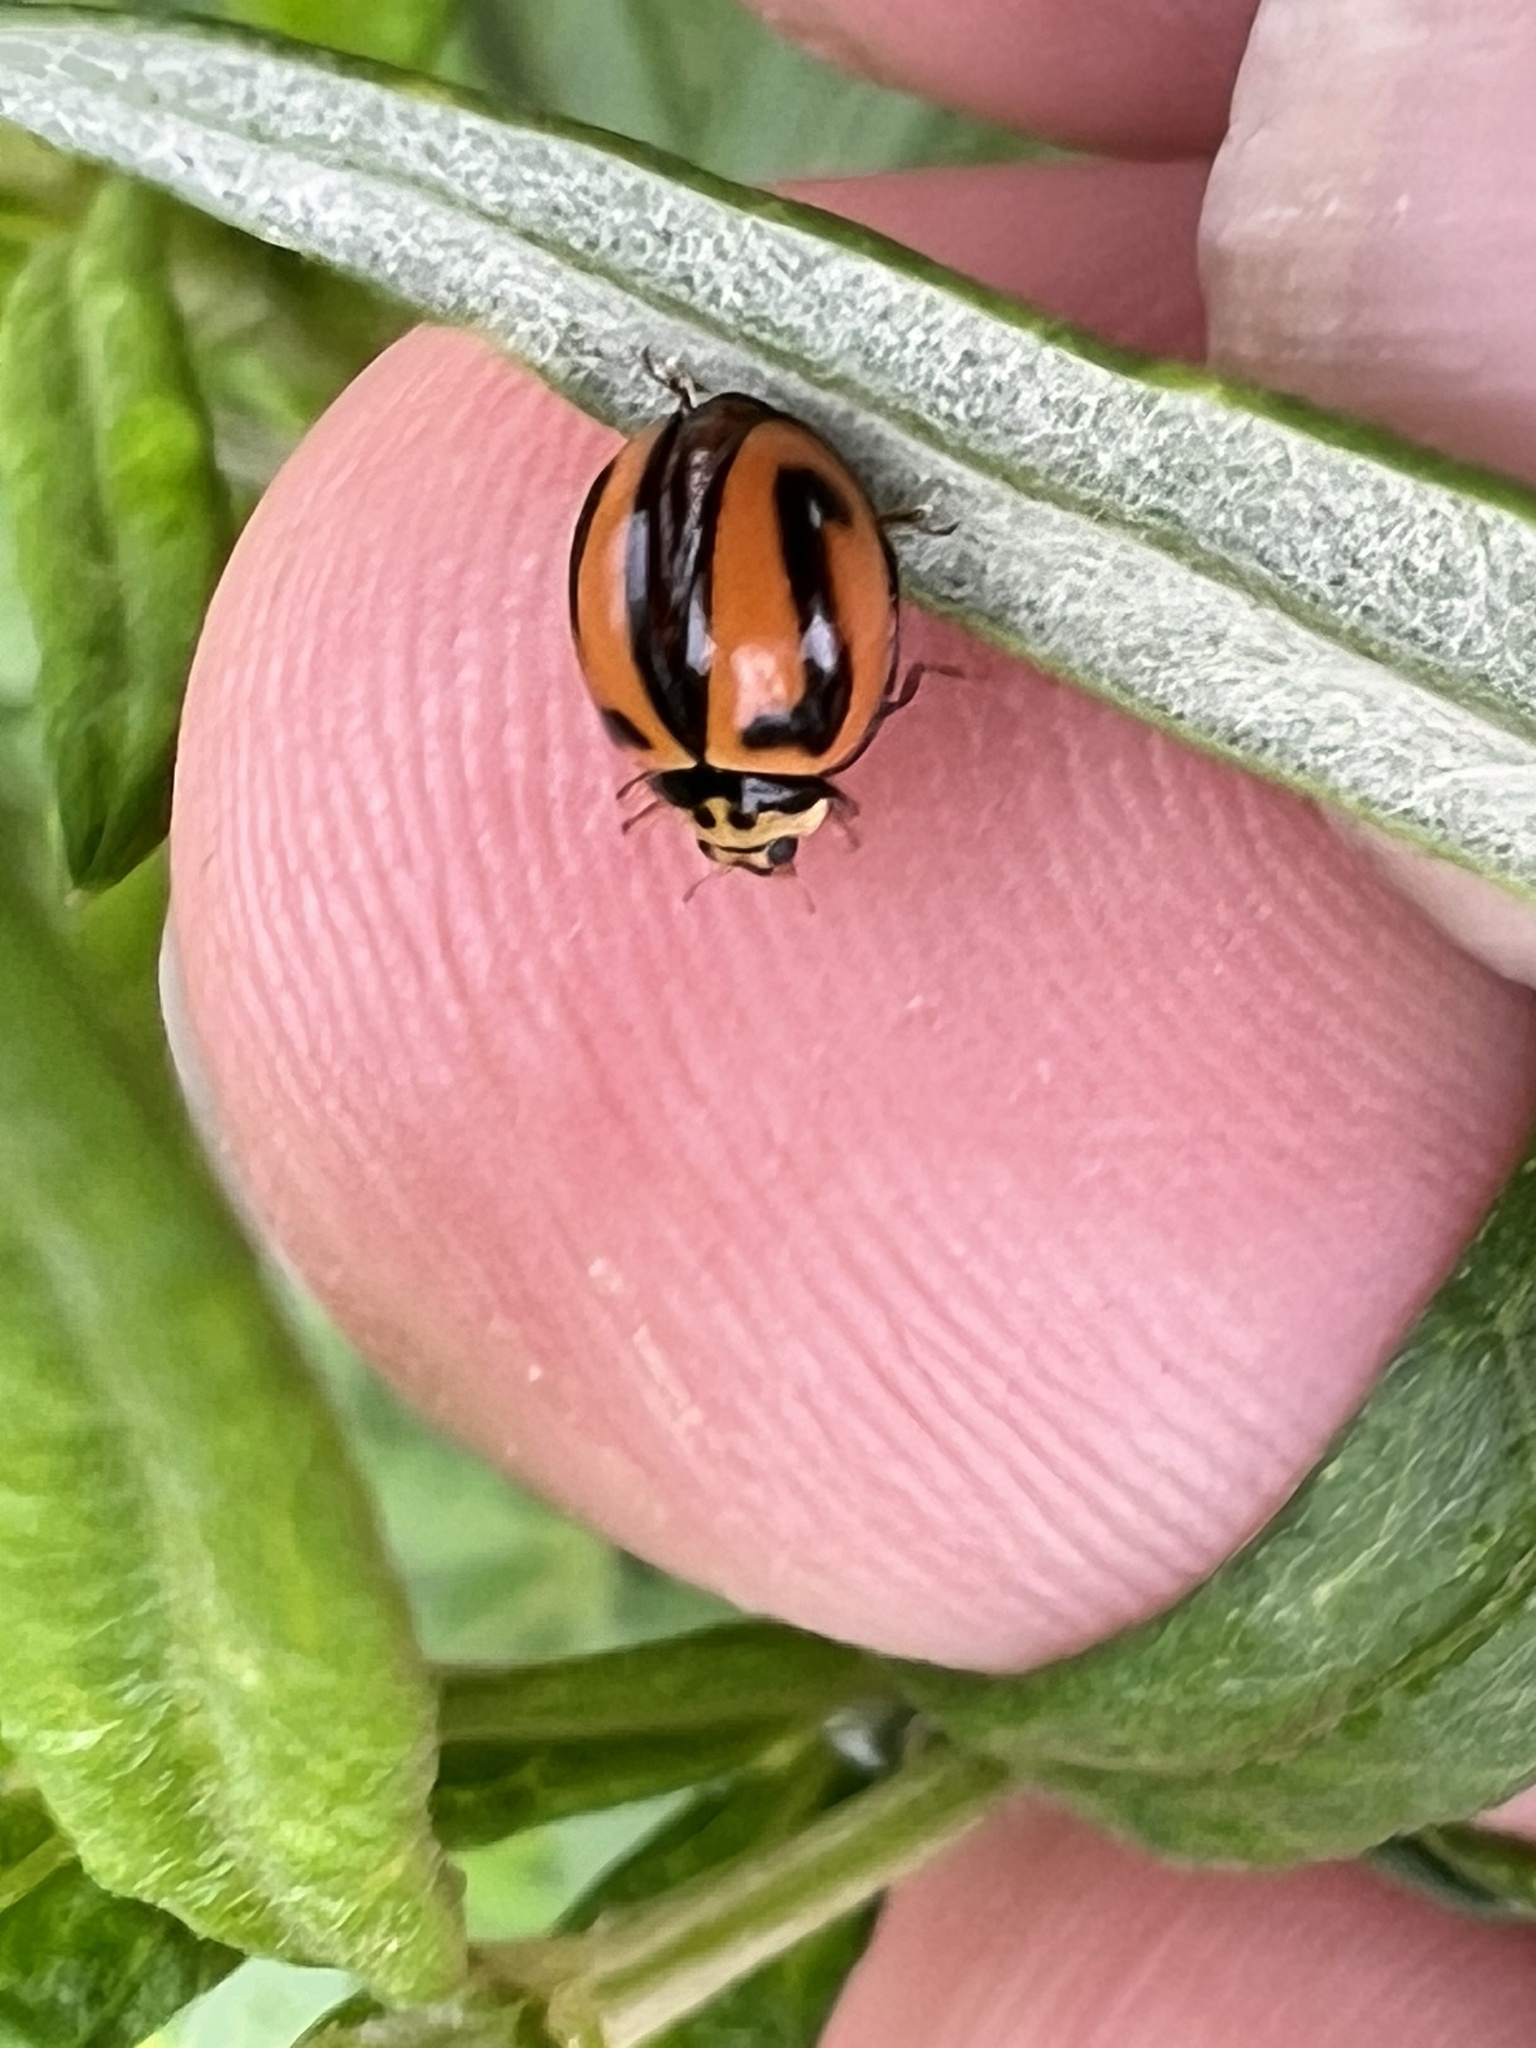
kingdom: Animalia
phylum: Arthropoda
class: Insecta
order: Coleoptera
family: Coccinellidae
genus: Micraspis
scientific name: Micraspis frenata
